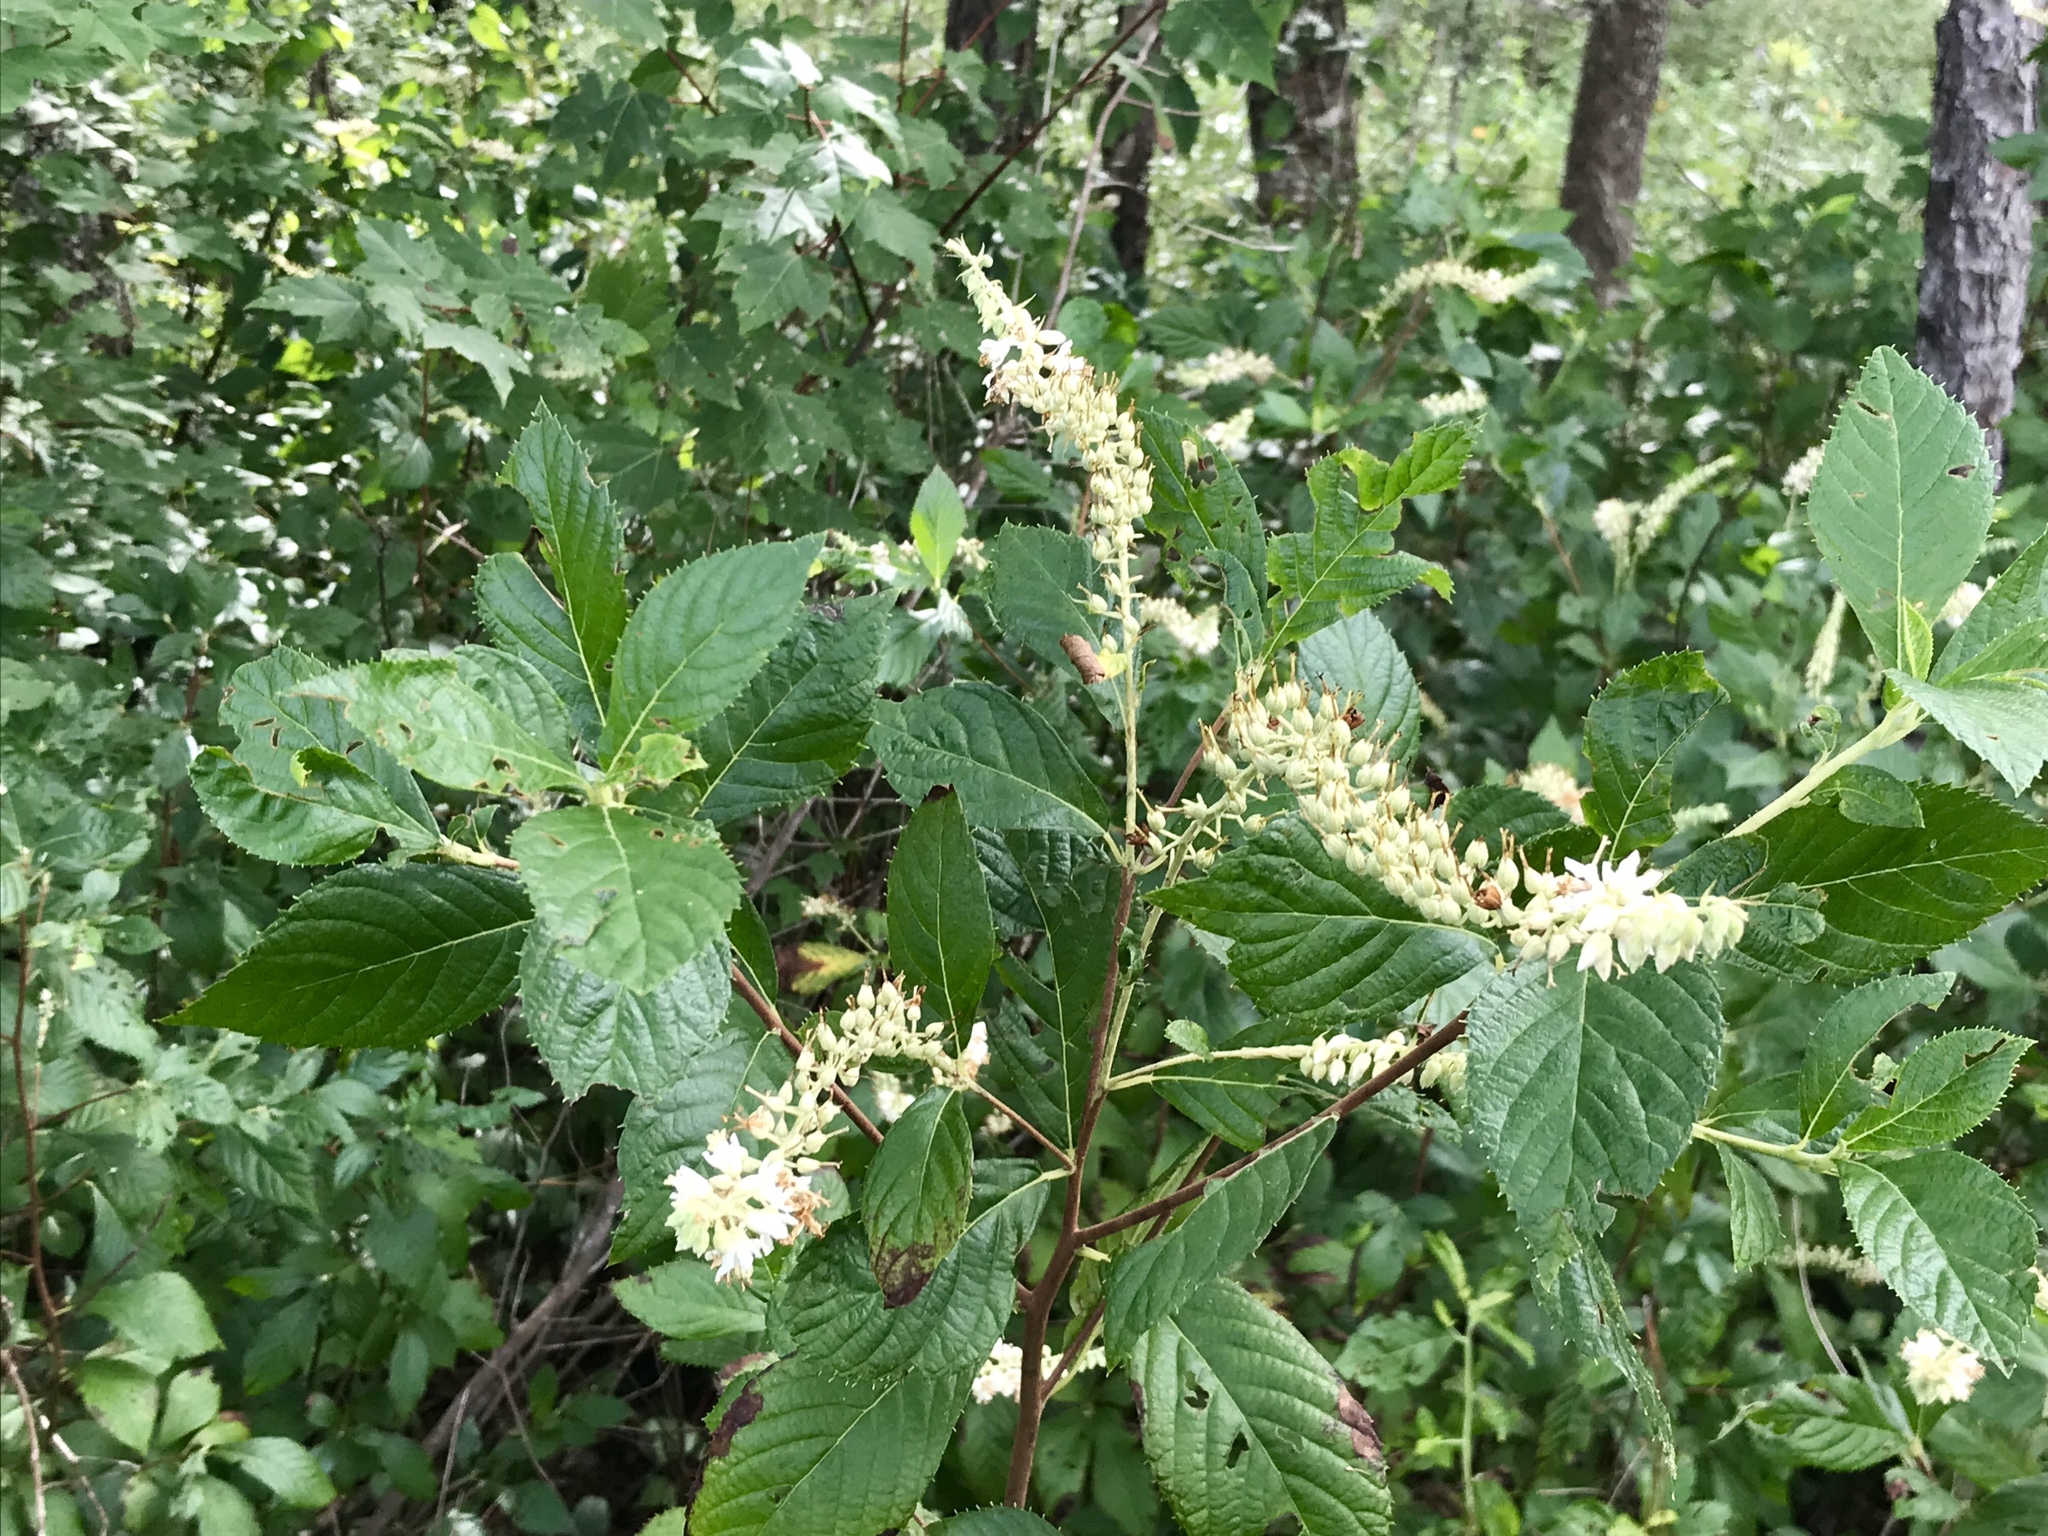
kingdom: Plantae
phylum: Tracheophyta
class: Magnoliopsida
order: Ericales
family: Clethraceae
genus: Clethra
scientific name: Clethra alnifolia
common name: Sweet pepperbush
